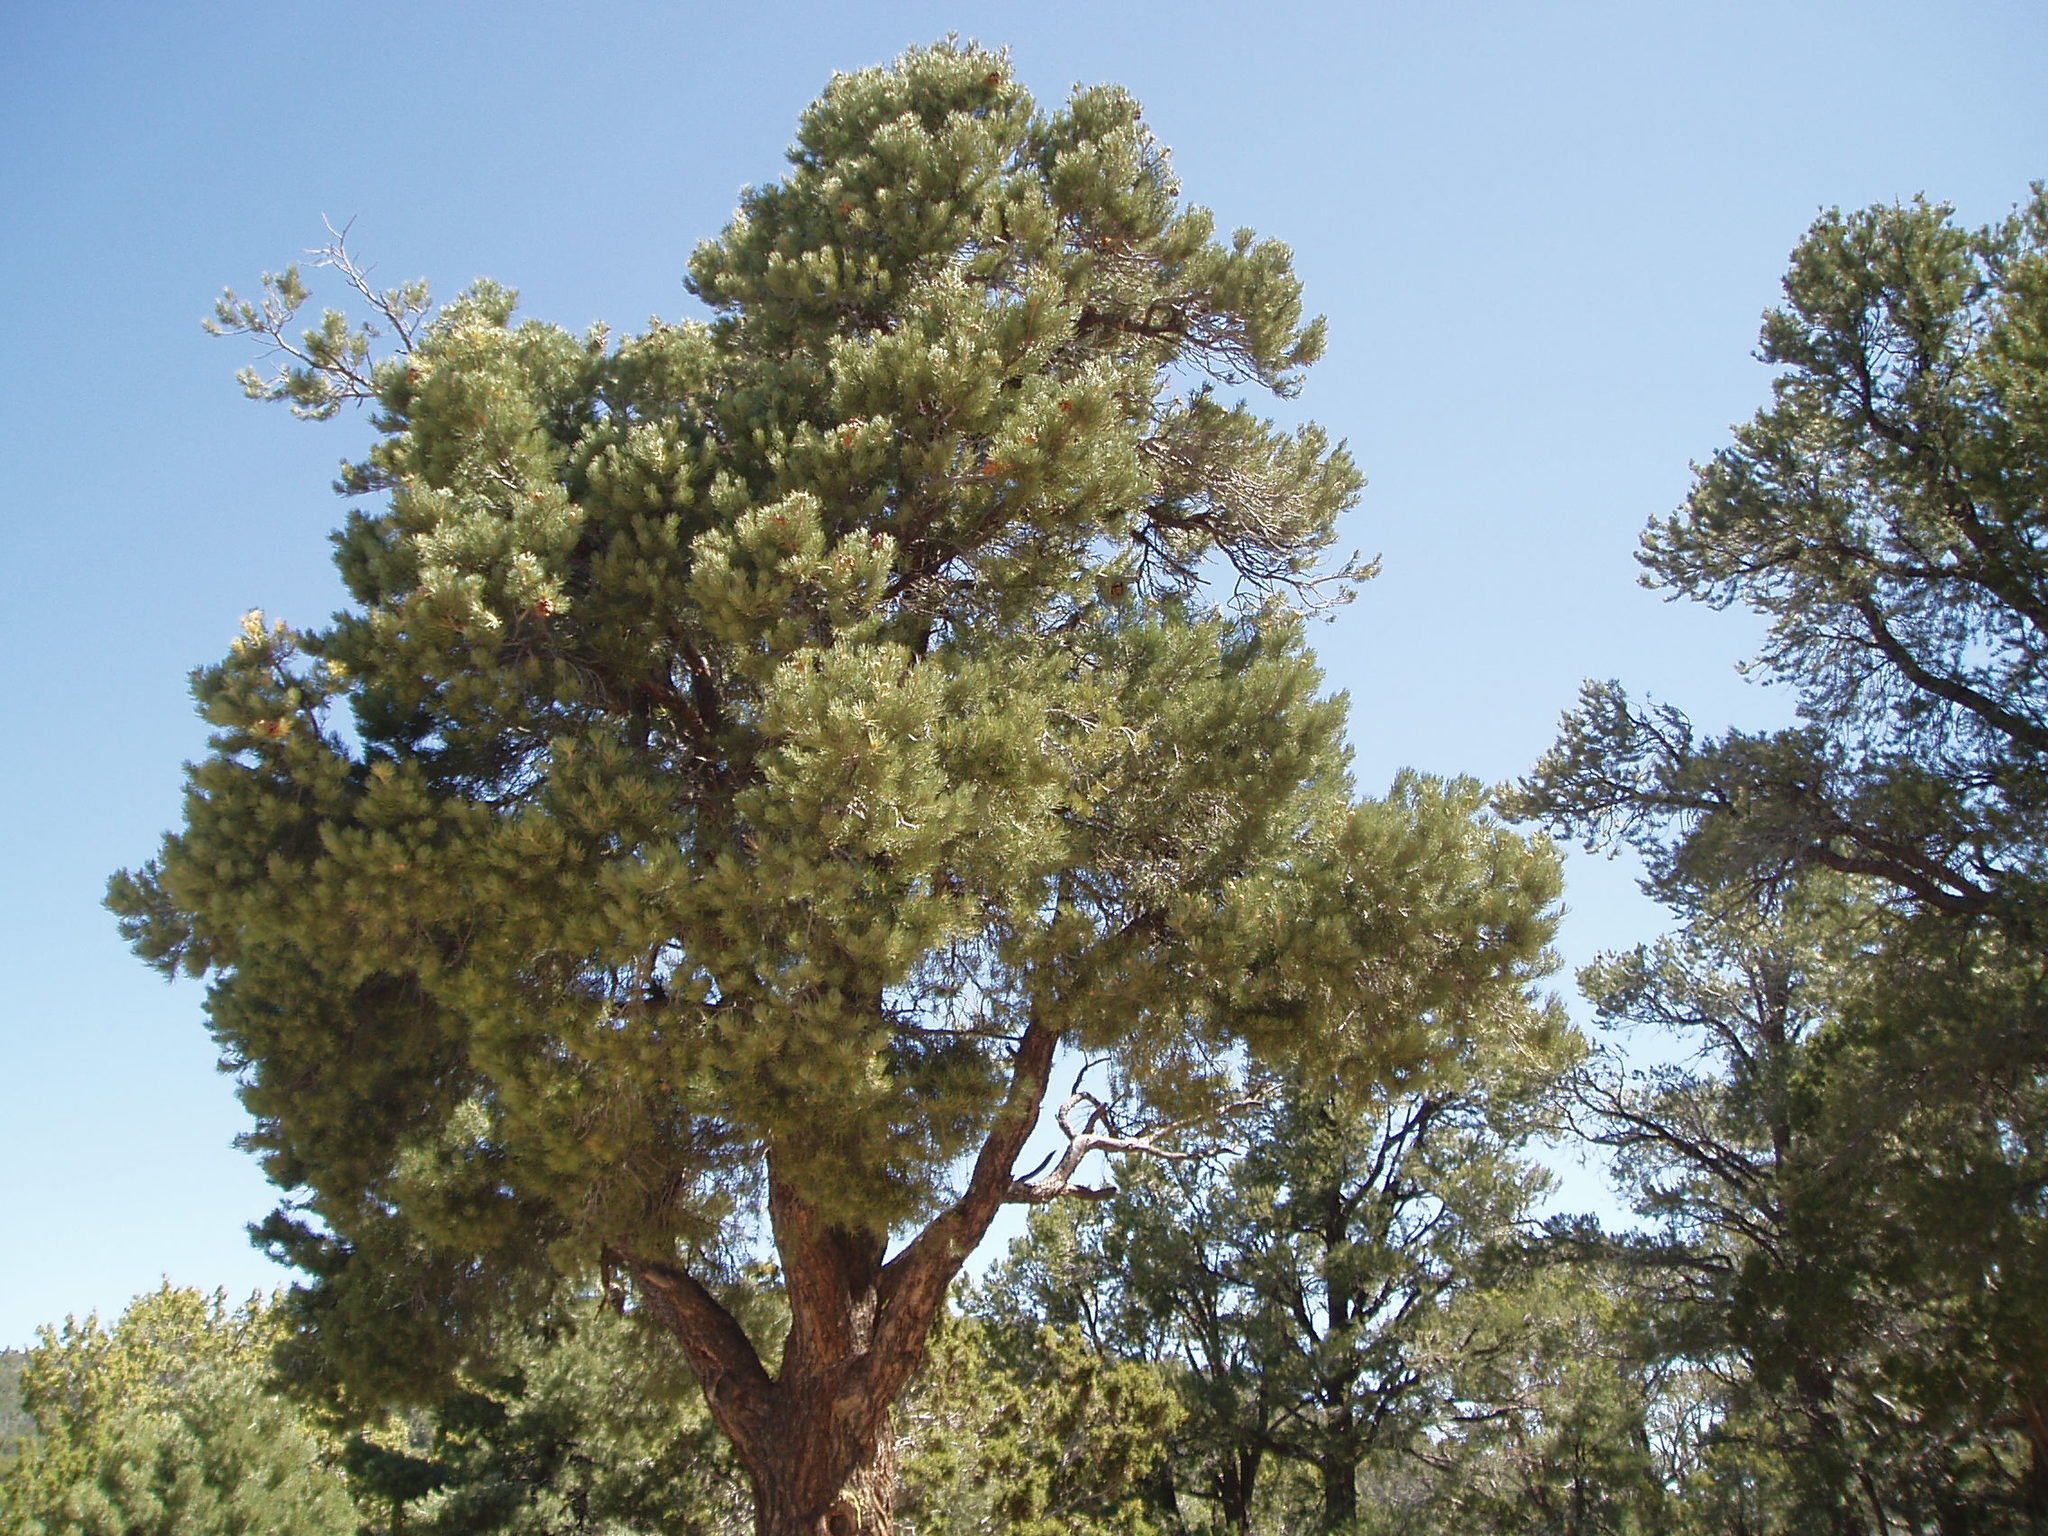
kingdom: Plantae
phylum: Tracheophyta
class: Pinopsida
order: Pinales
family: Pinaceae
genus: Pinus
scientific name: Pinus monophylla
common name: One-leaved nut pine
